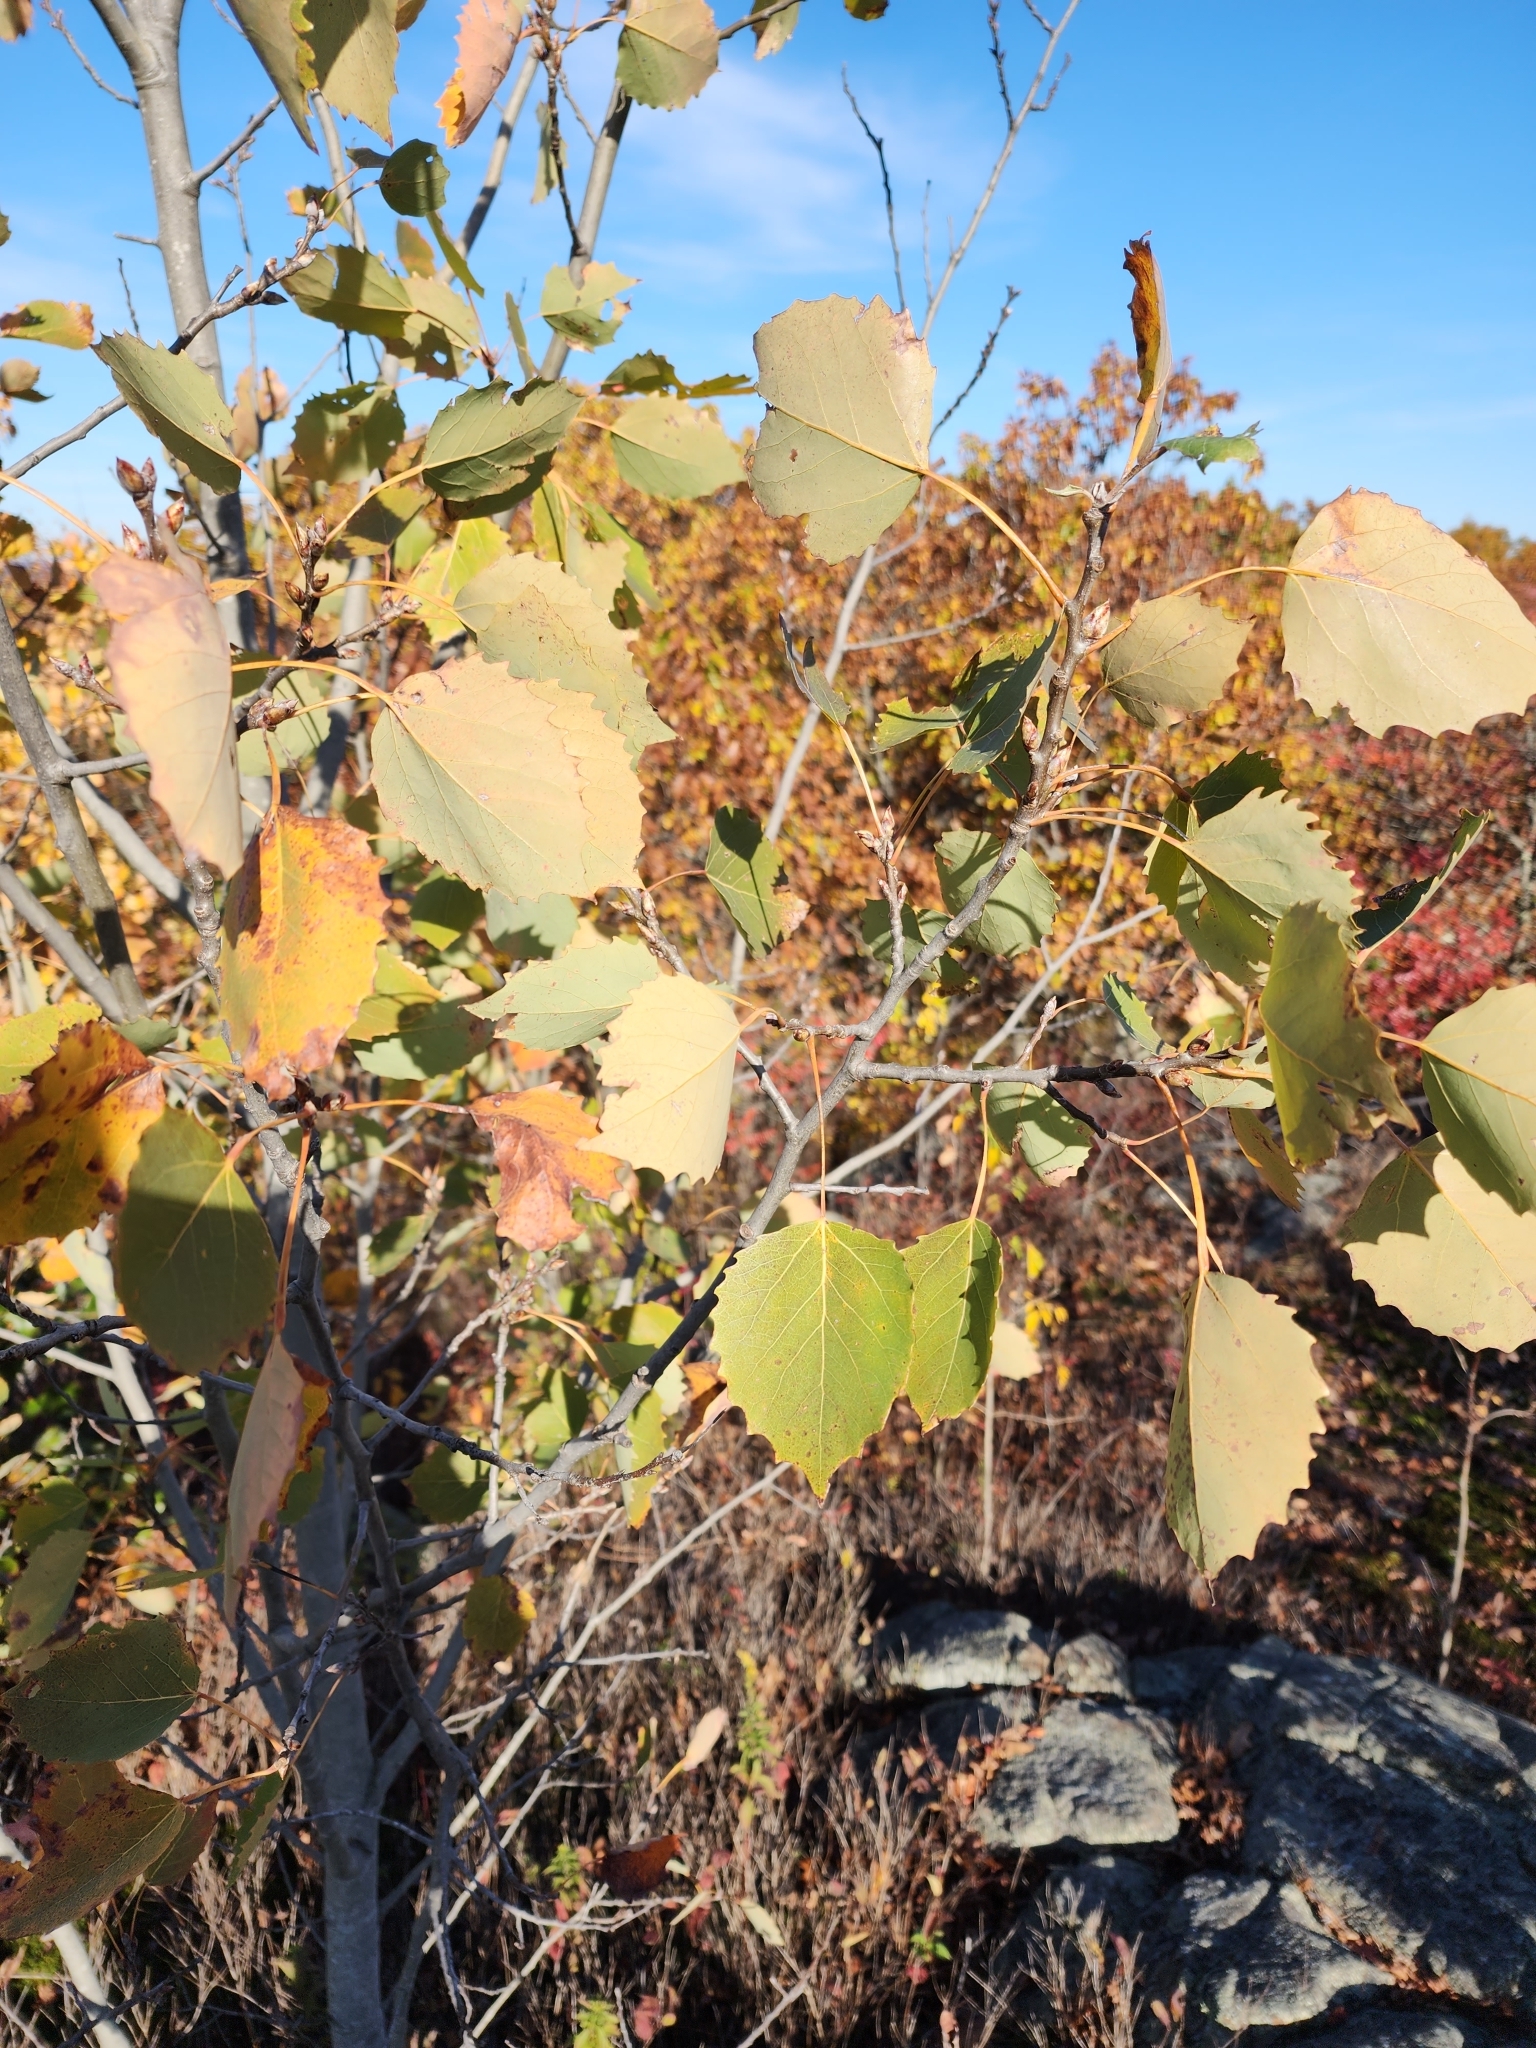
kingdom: Plantae
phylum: Tracheophyta
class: Magnoliopsida
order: Malpighiales
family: Salicaceae
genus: Populus
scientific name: Populus grandidentata
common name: Bigtooth aspen
